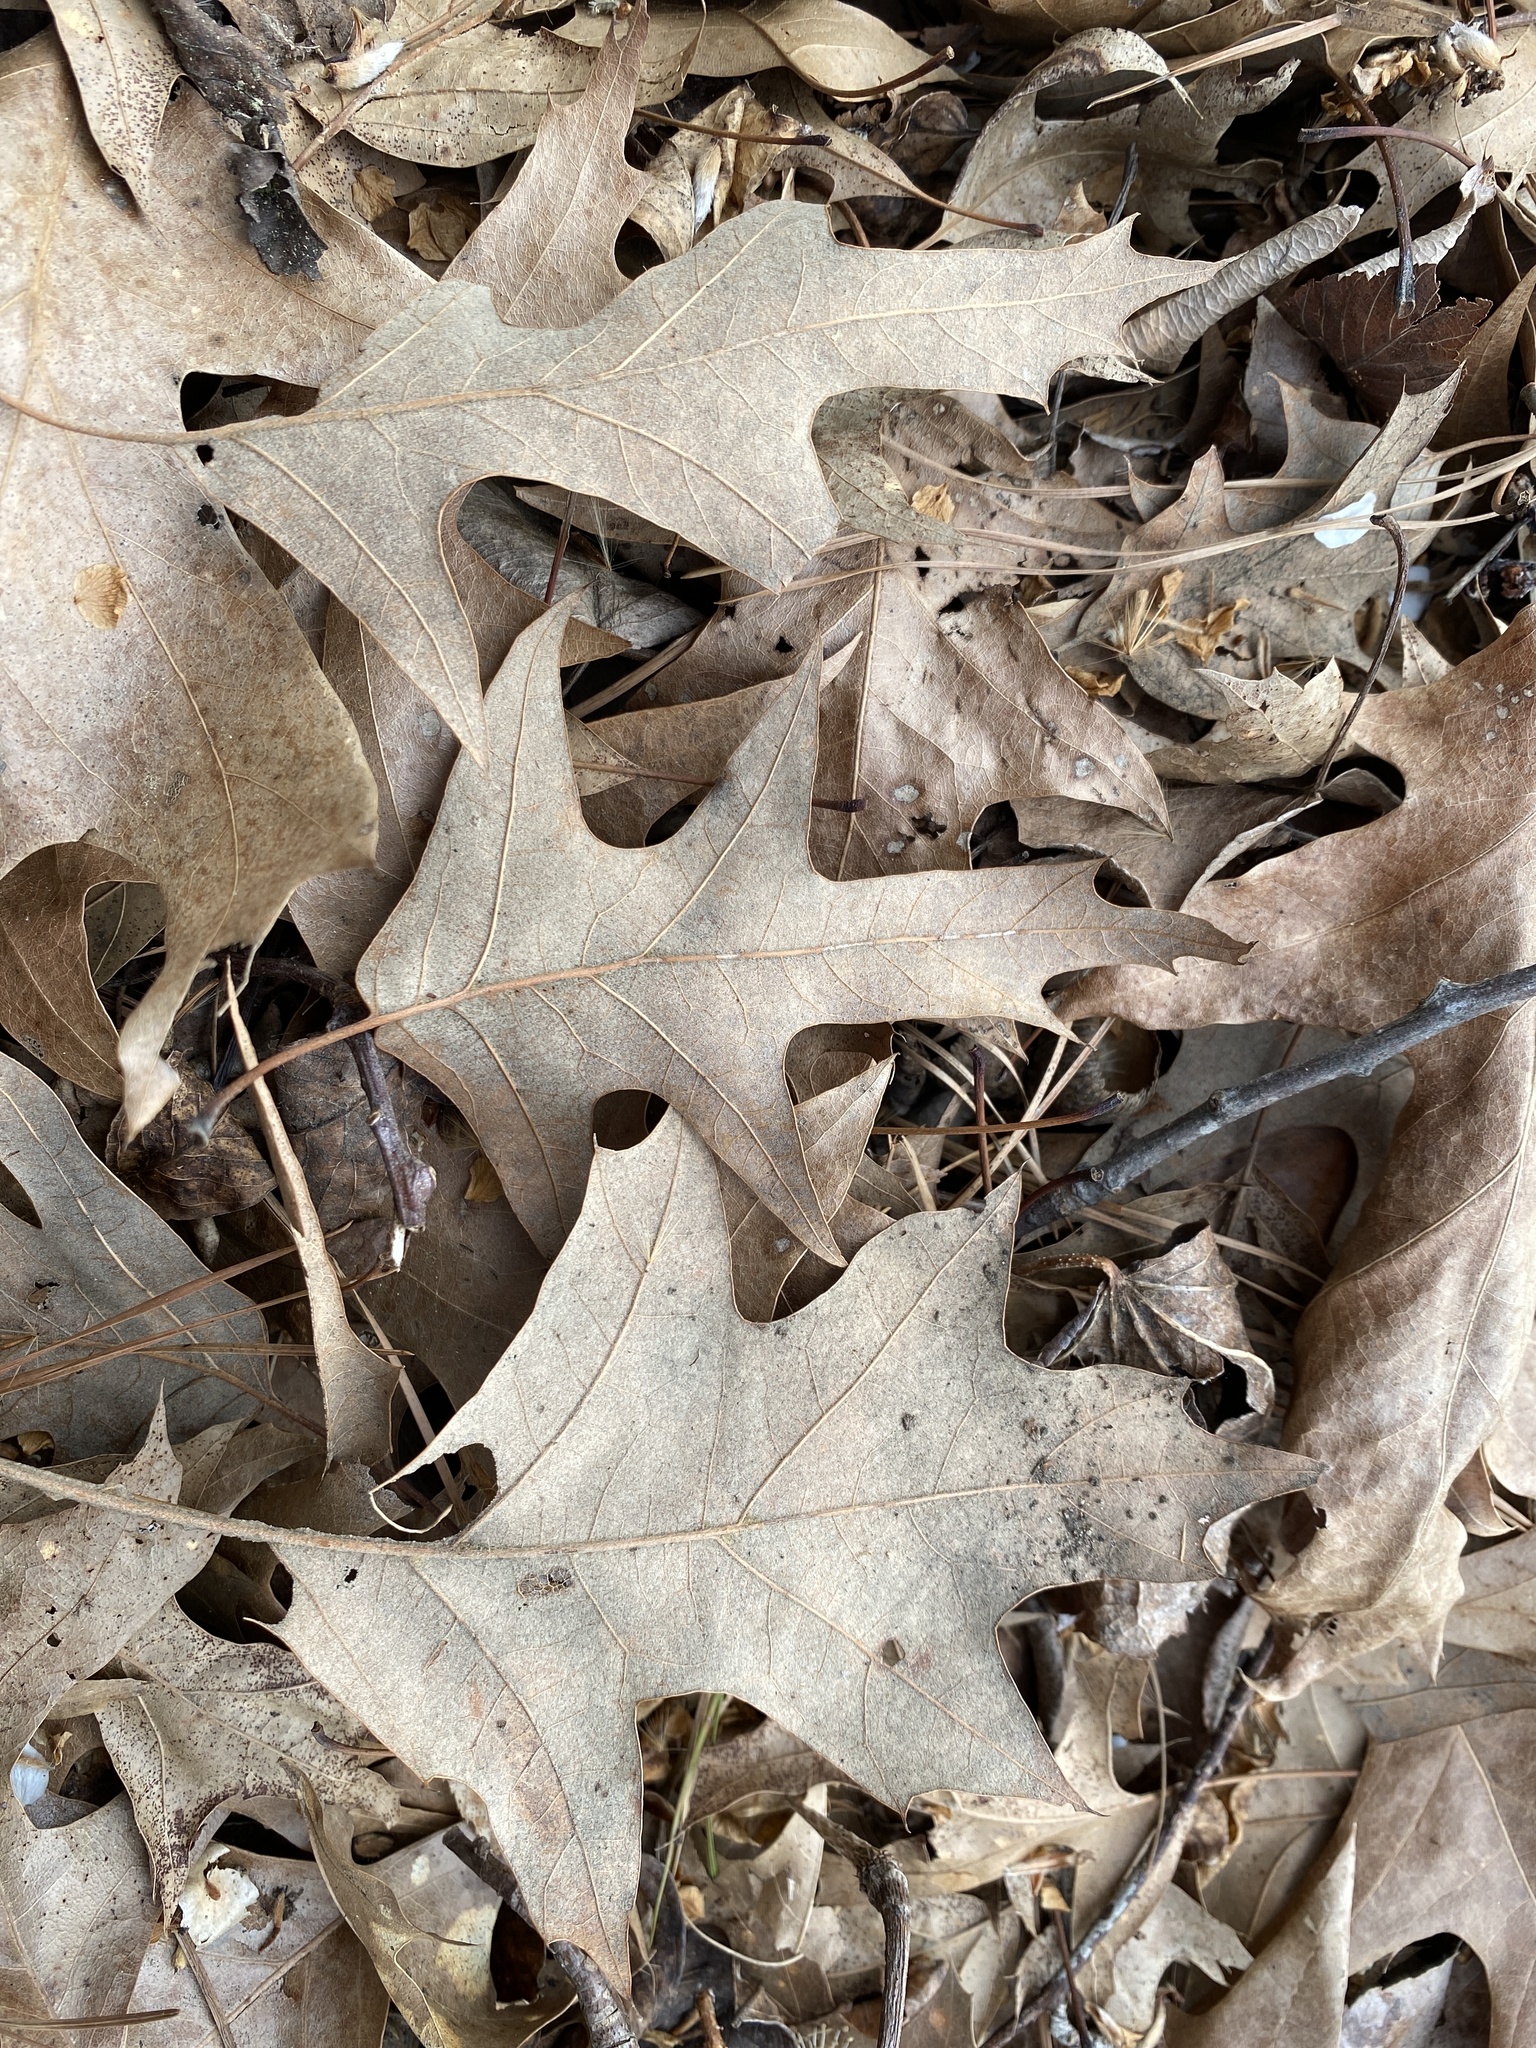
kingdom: Plantae
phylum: Tracheophyta
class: Magnoliopsida
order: Fagales
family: Fagaceae
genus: Quercus
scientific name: Quercus pagoda
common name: Cherrybark oak
